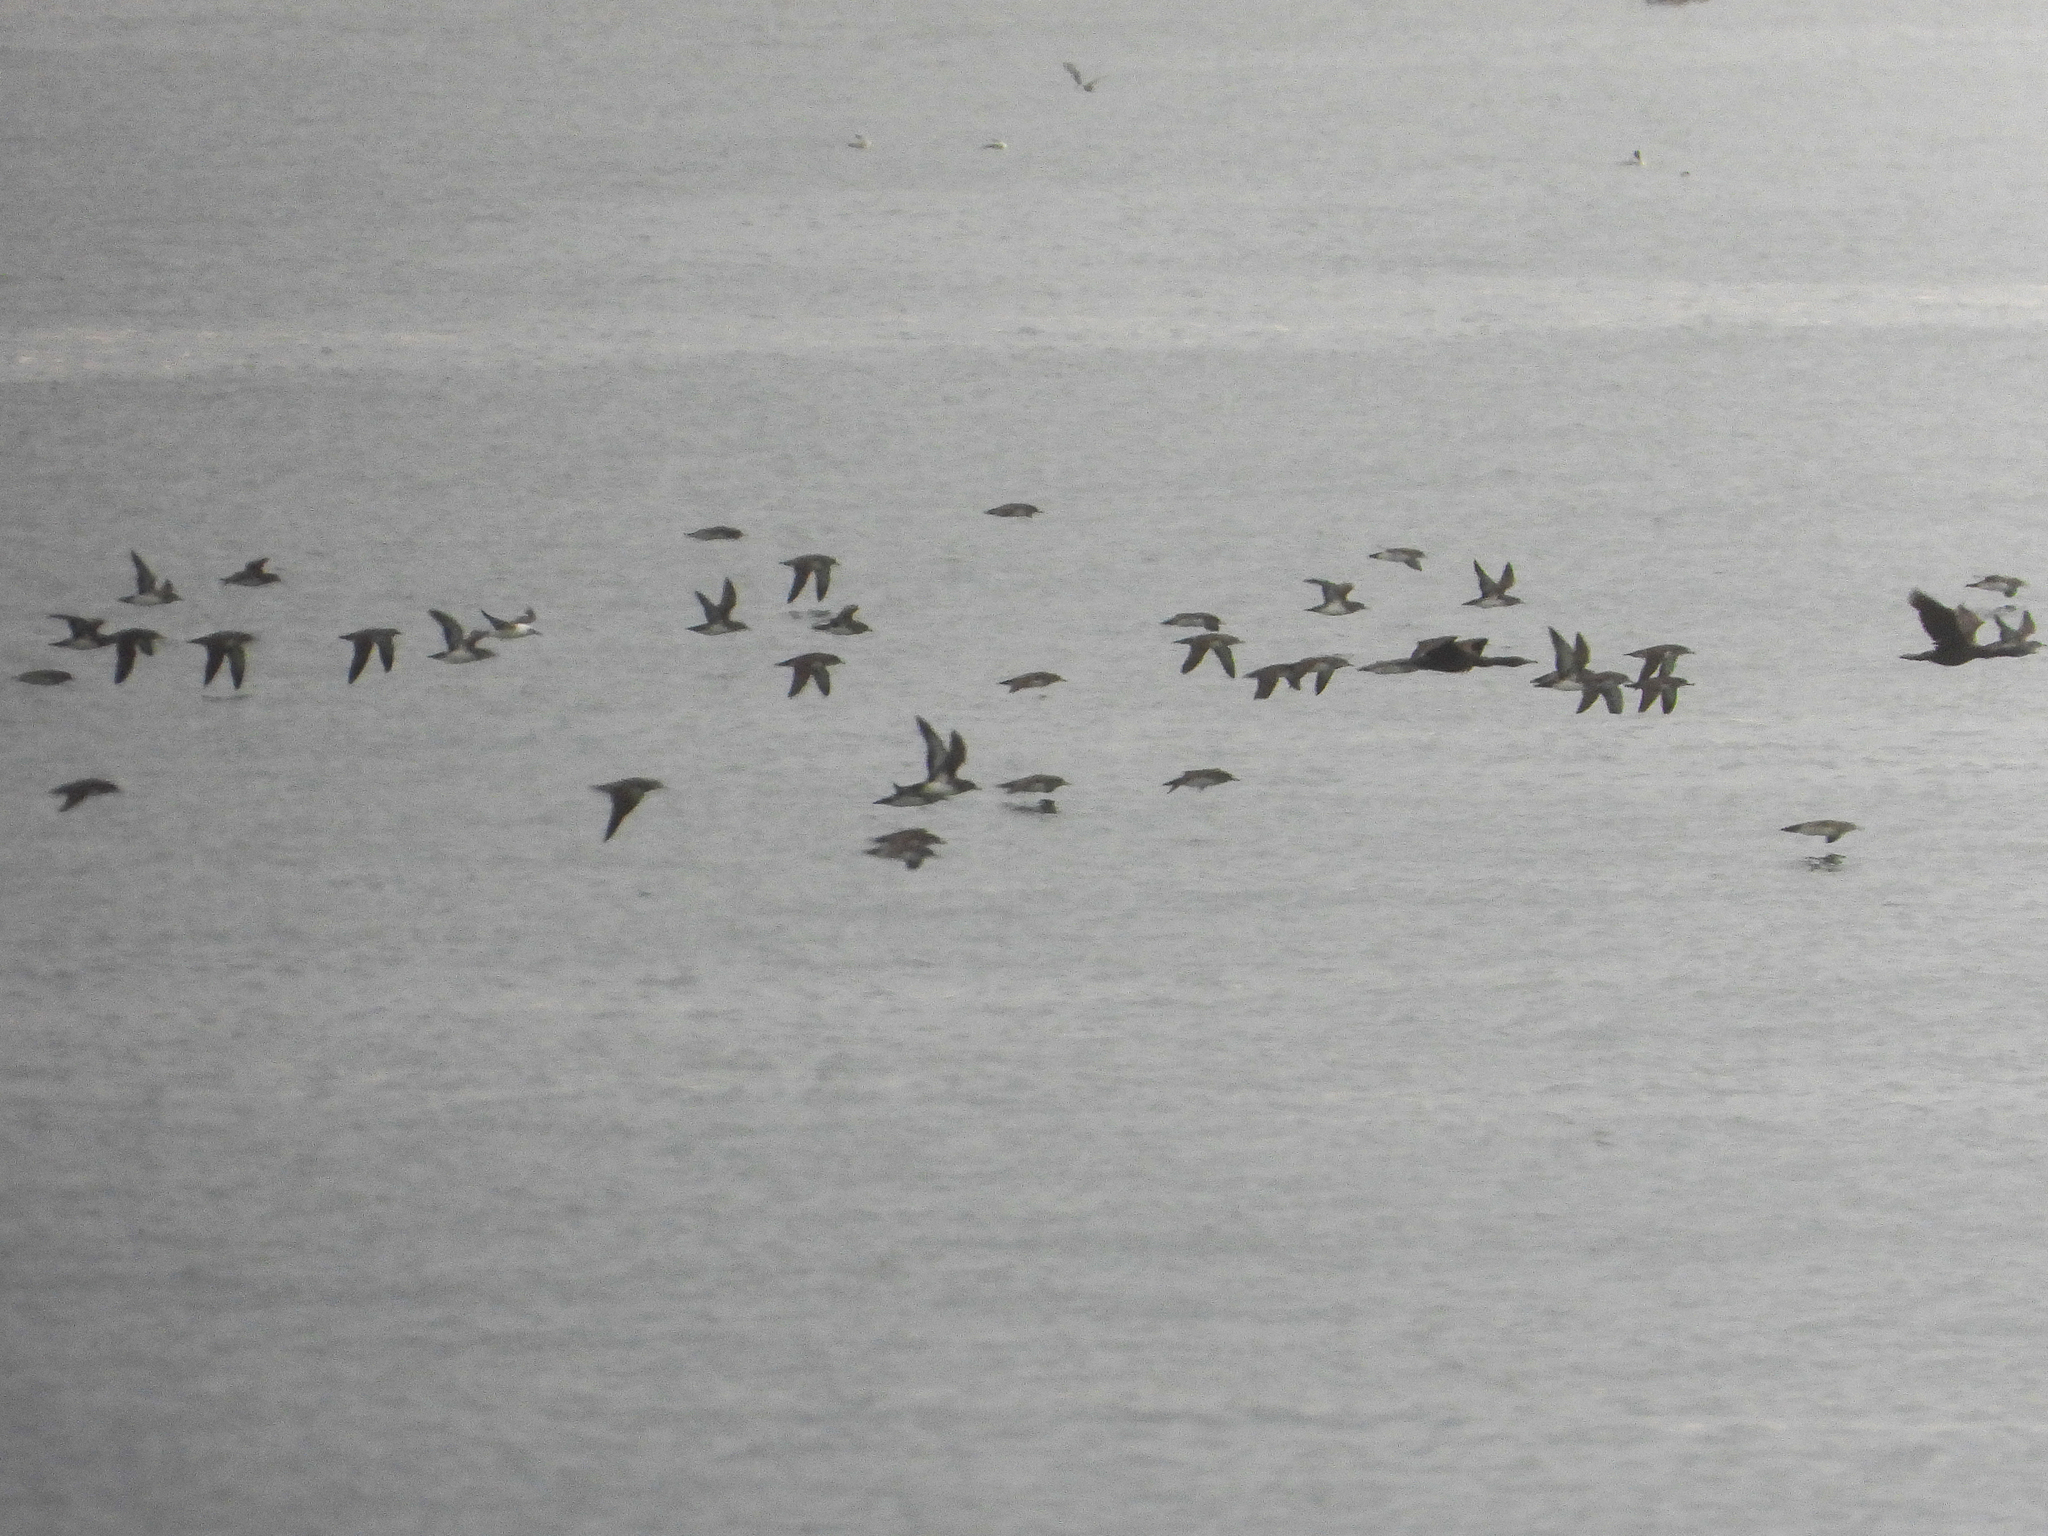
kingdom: Animalia
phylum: Chordata
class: Aves
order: Procellariiformes
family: Procellariidae
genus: Puffinus
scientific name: Puffinus opisthomelas
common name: Black-vented shearwater
